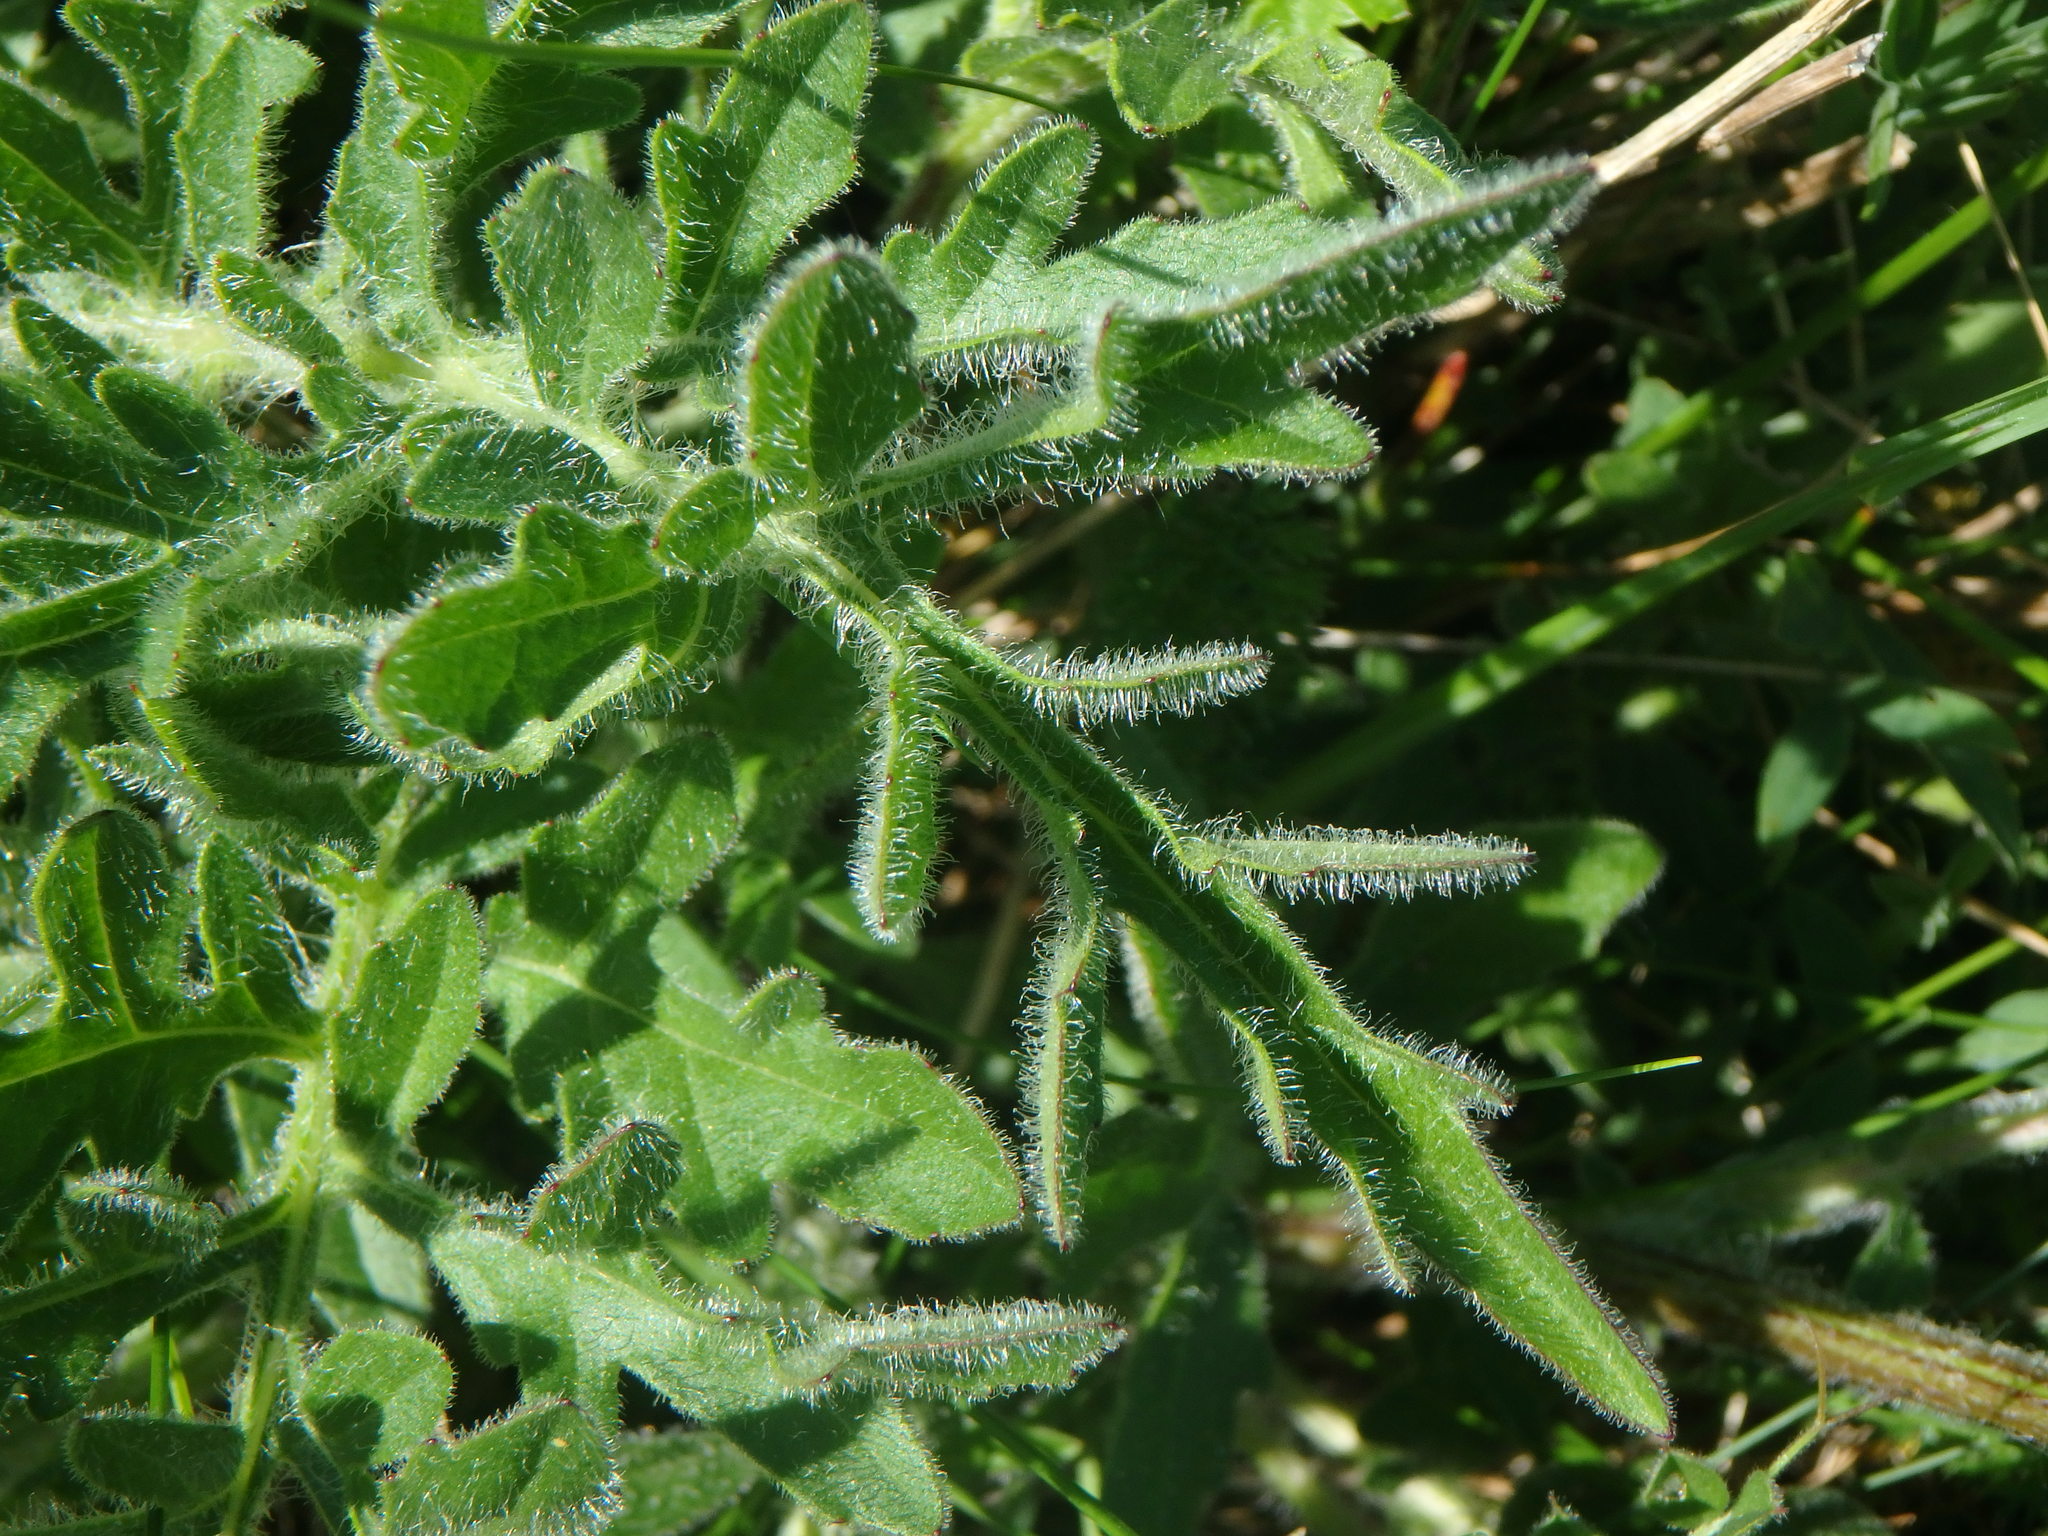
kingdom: Plantae
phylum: Tracheophyta
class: Magnoliopsida
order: Asterales
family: Asteraceae
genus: Centaurea
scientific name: Centaurea debeauxii
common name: Slender knapweed
